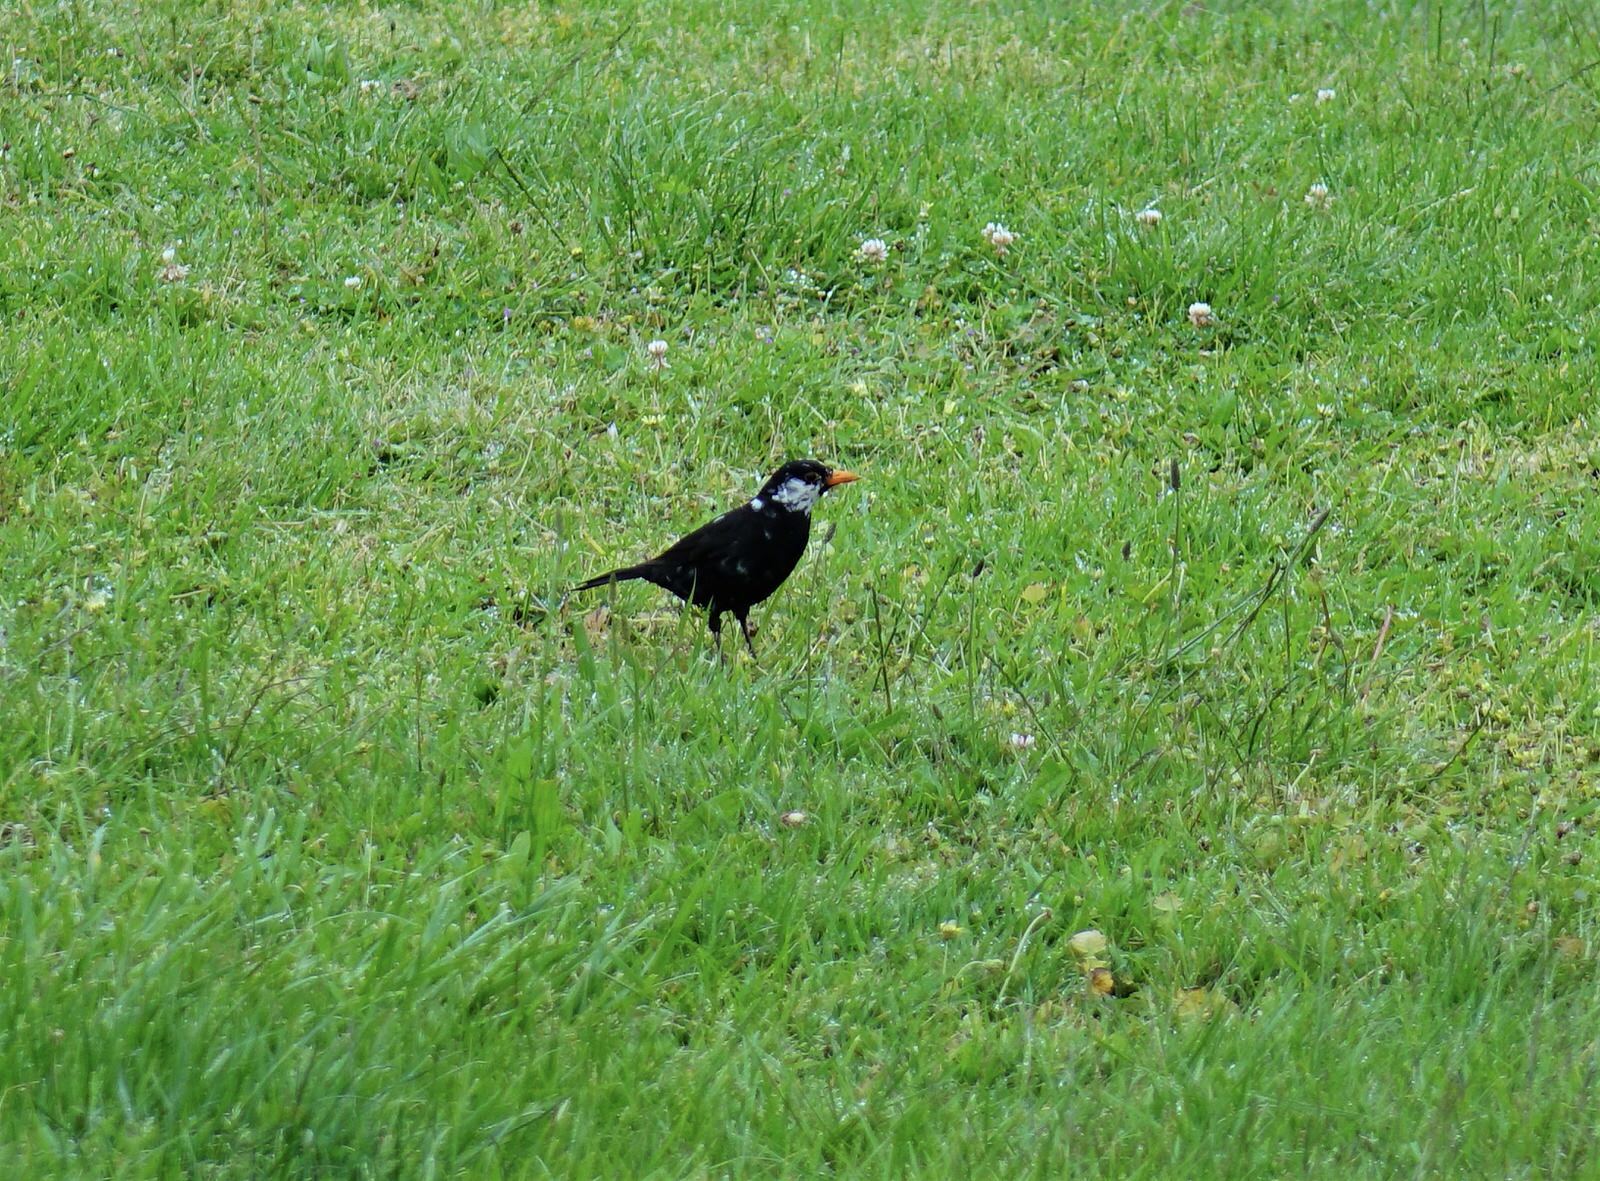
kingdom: Animalia
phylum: Chordata
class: Aves
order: Passeriformes
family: Turdidae
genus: Turdus
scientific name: Turdus merula
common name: Common blackbird
